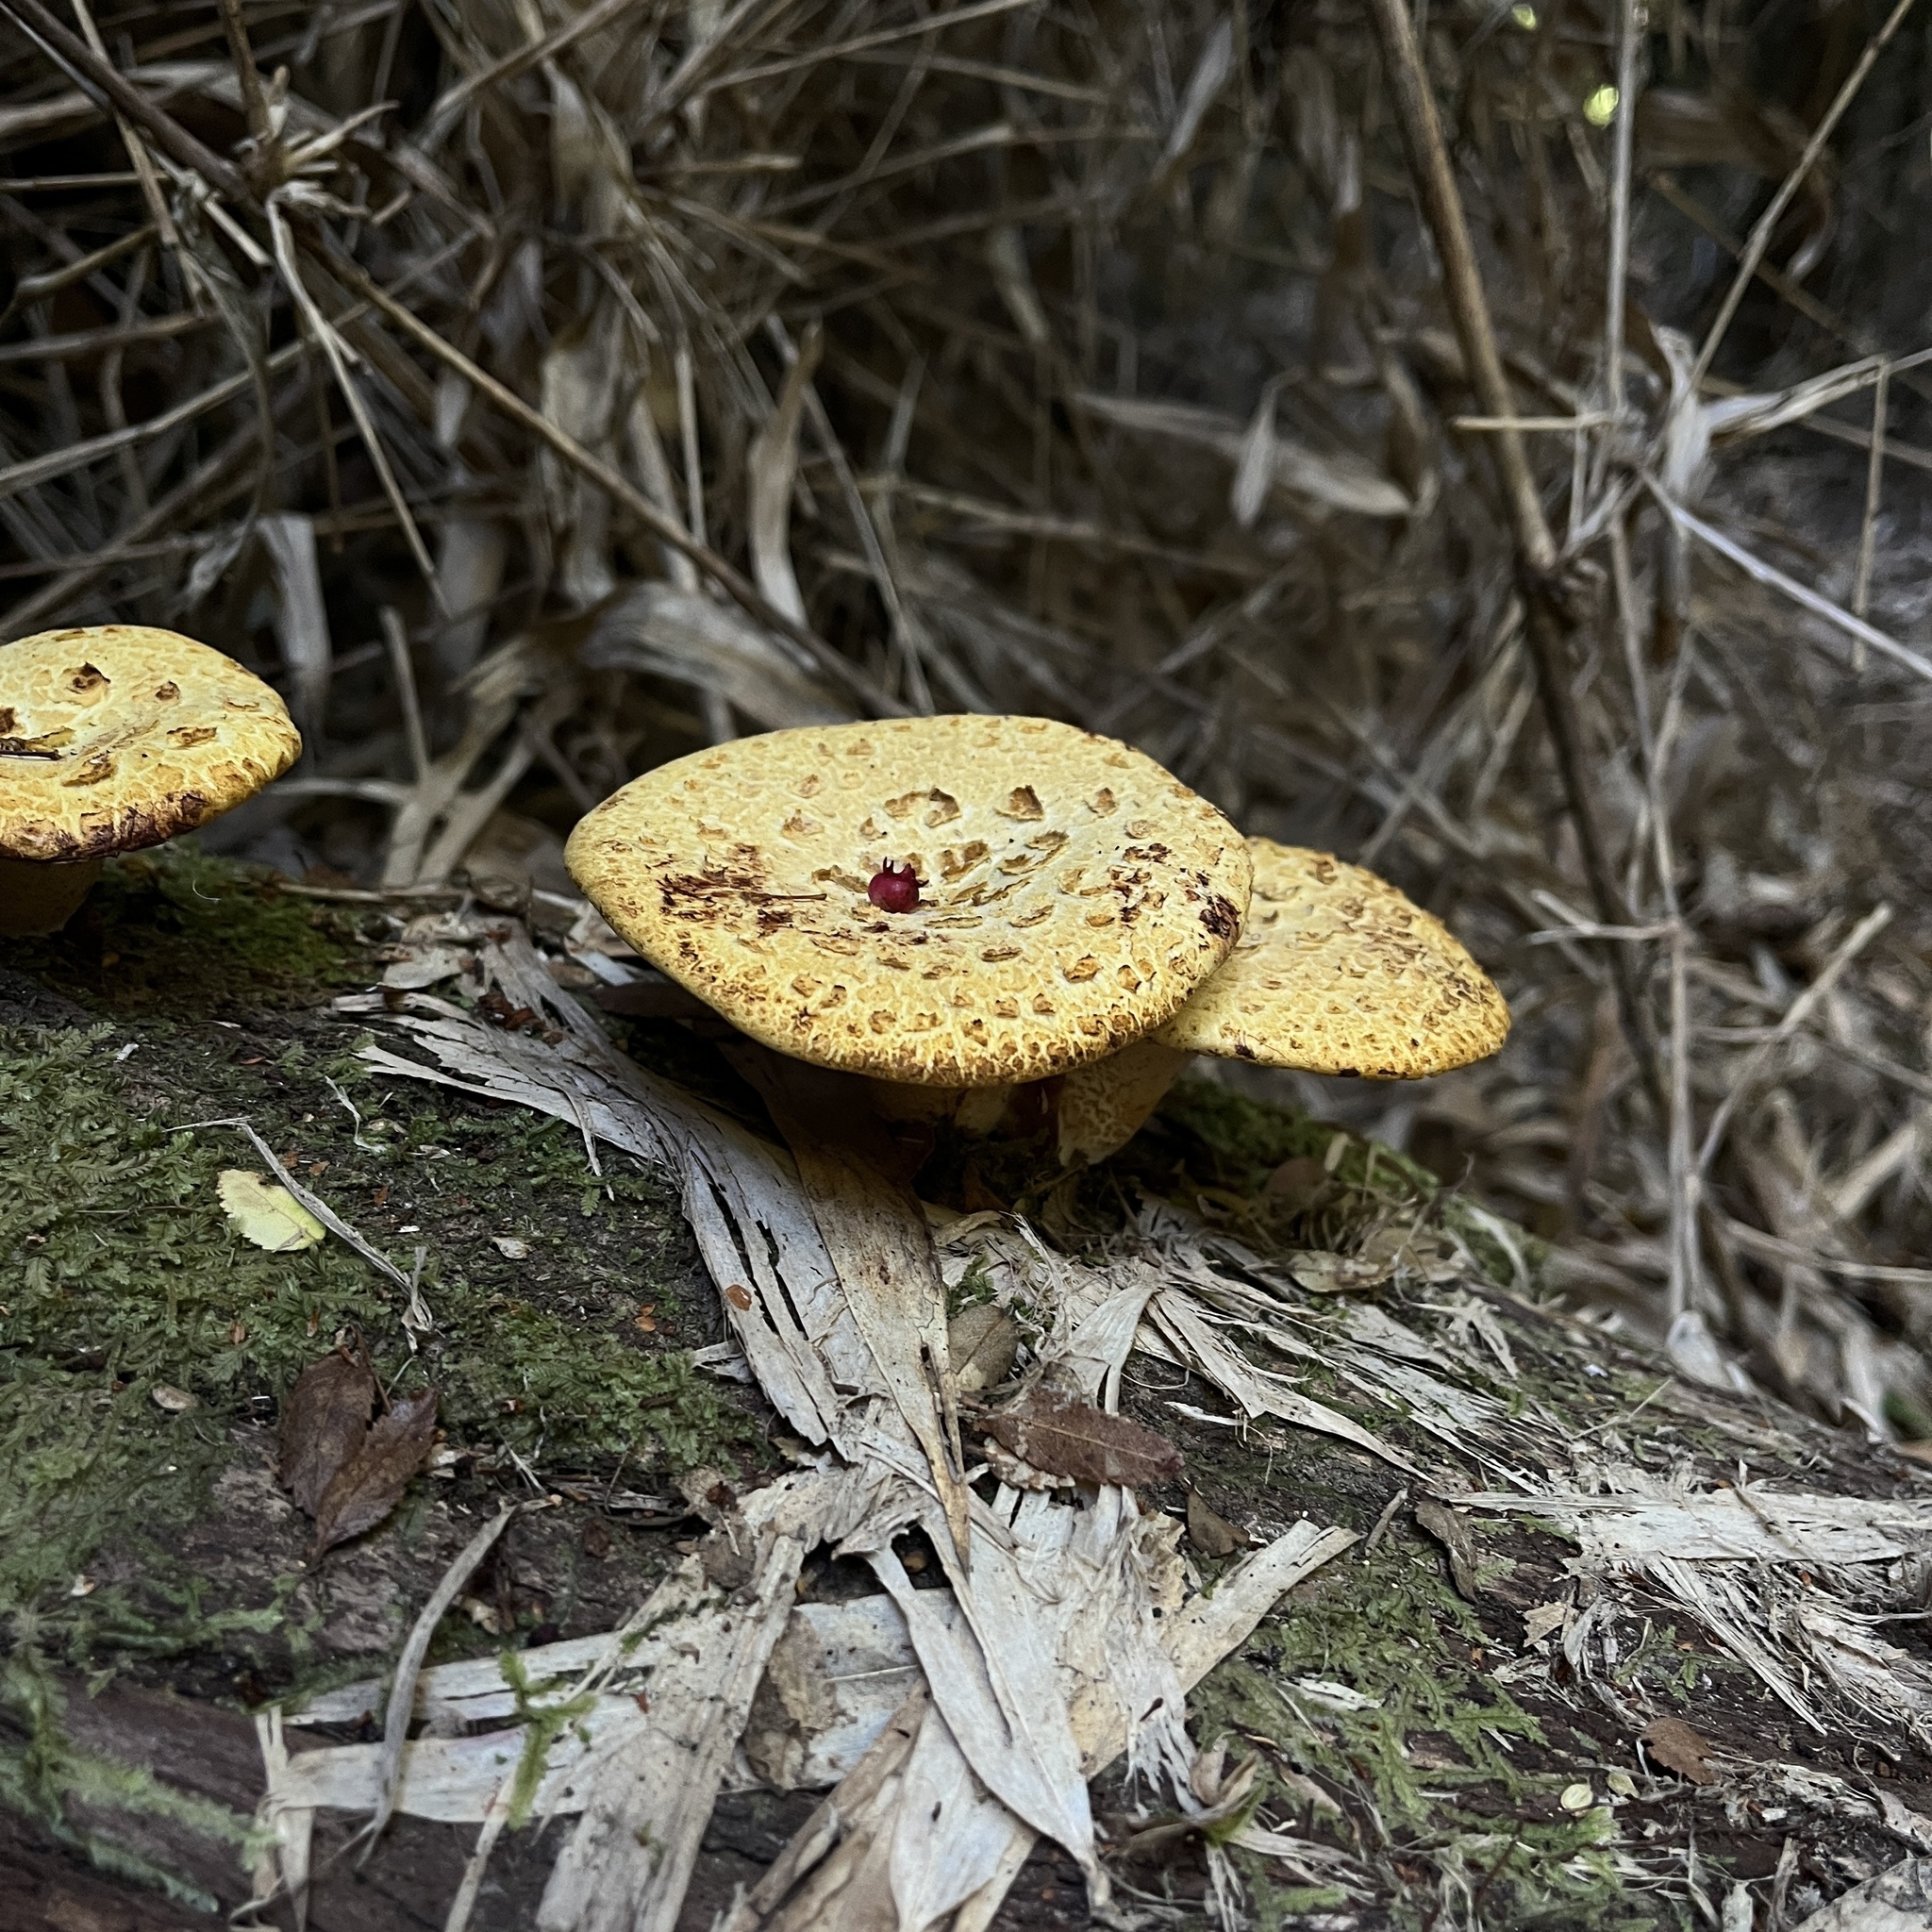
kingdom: Fungi
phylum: Basidiomycota
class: Agaricomycetes
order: Polyporales
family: Fomitopsidaceae
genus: Fomitopsis
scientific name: Fomitopsis
